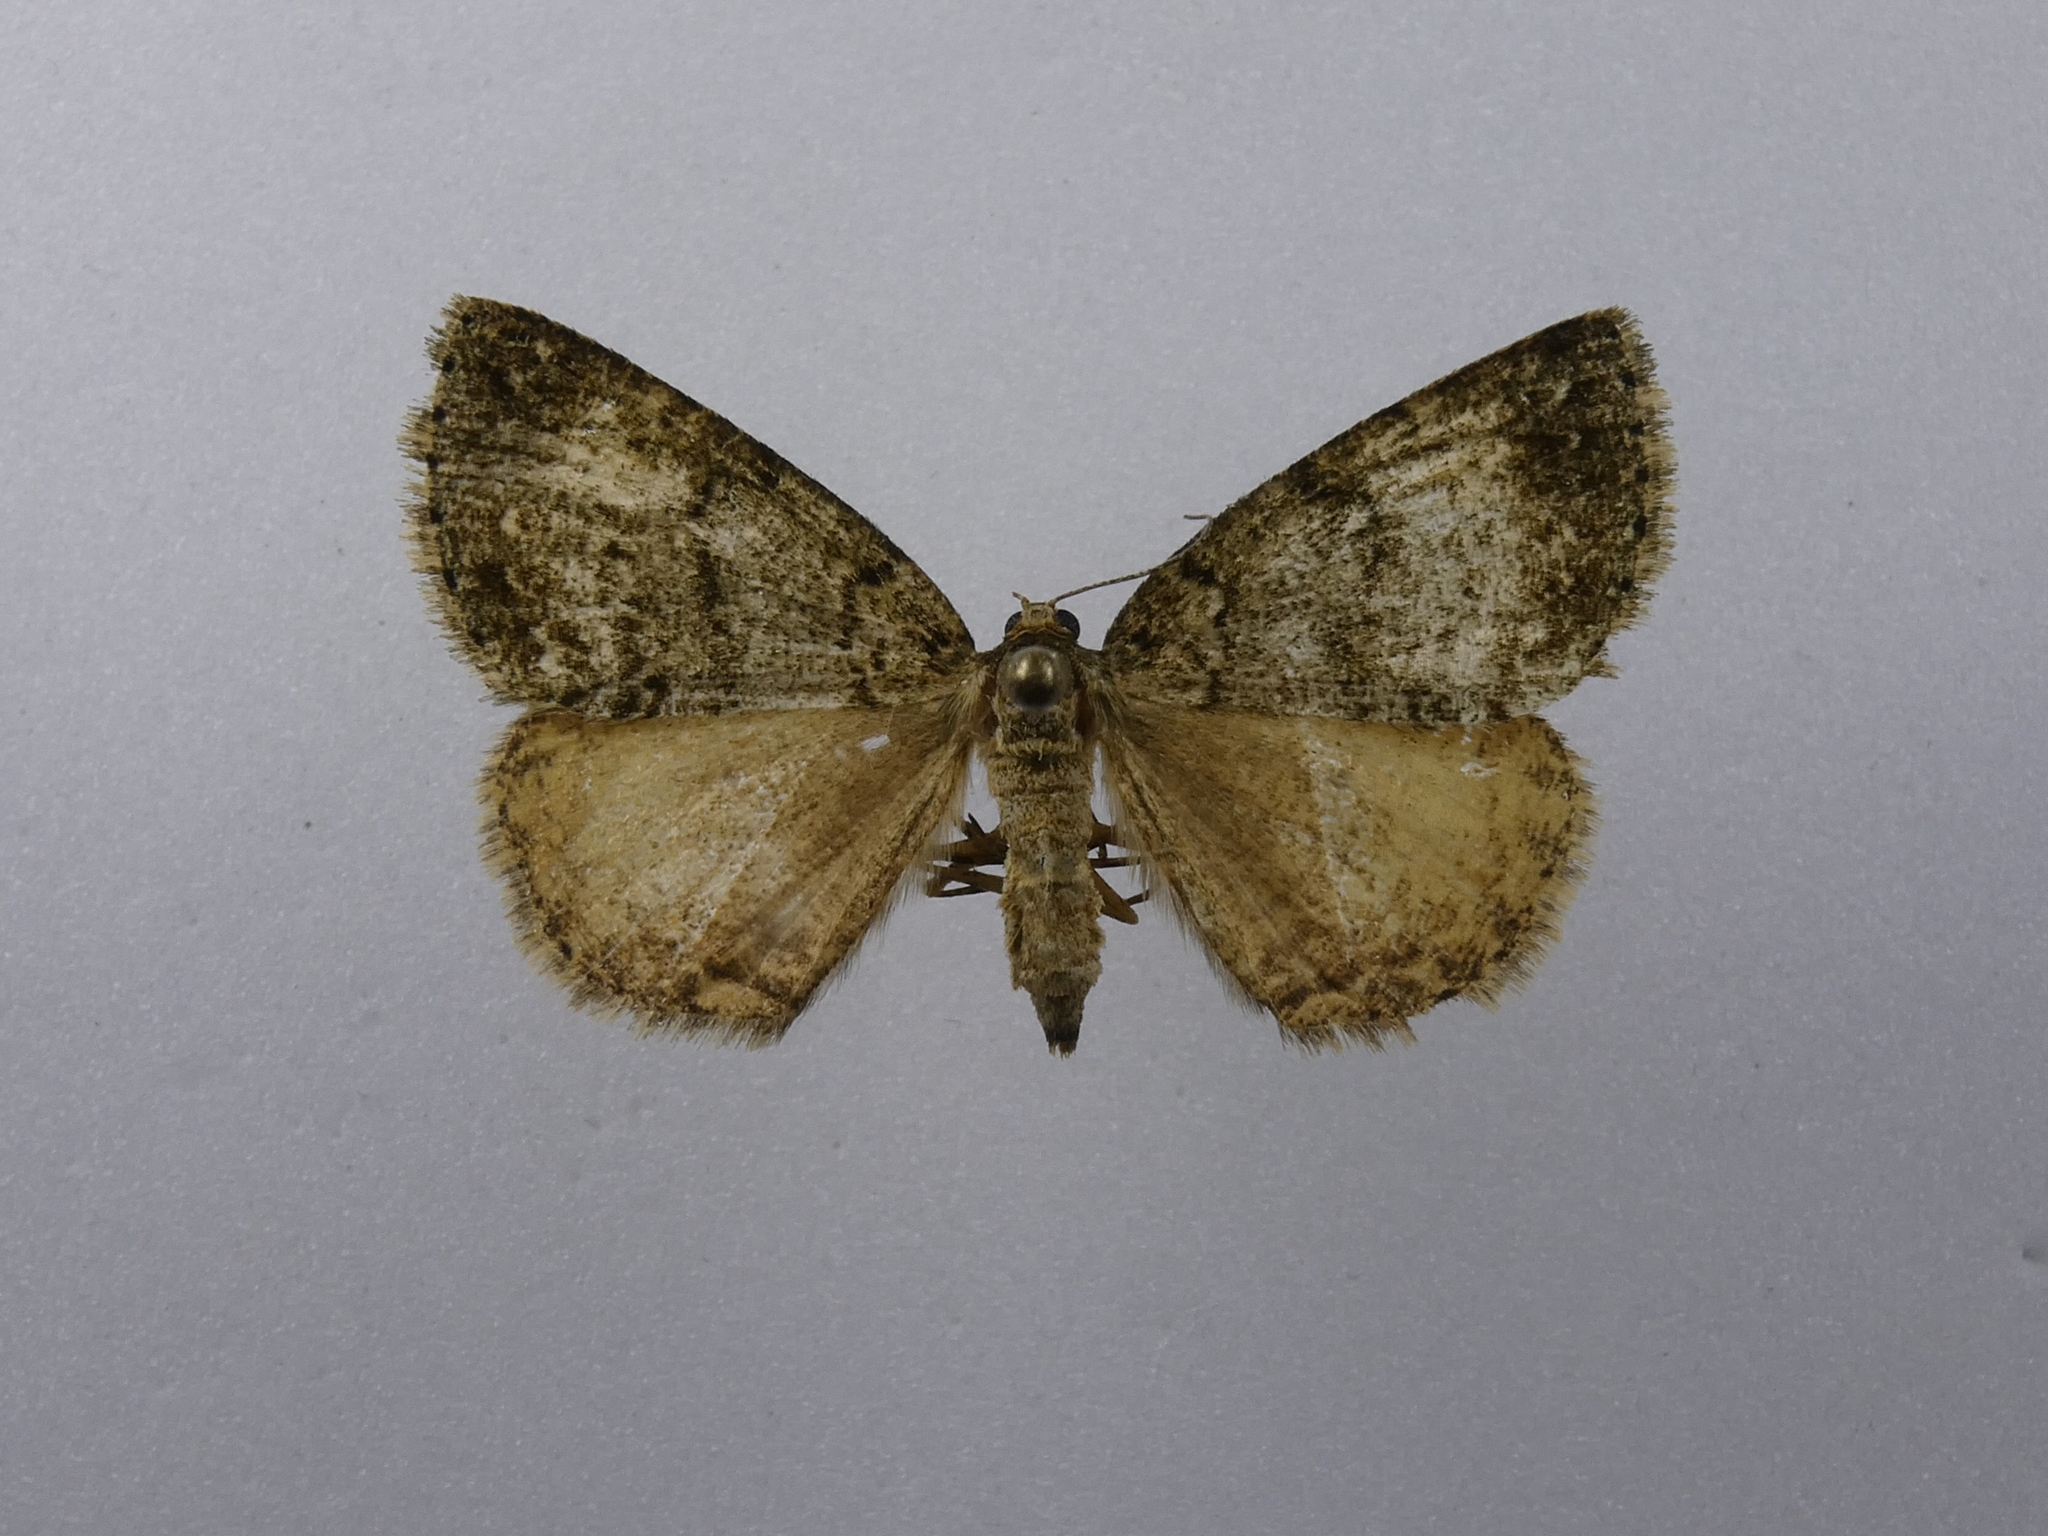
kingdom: Animalia
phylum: Arthropoda
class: Insecta
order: Lepidoptera
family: Geometridae
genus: Pseudocoremia
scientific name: Pseudocoremia indistincta
